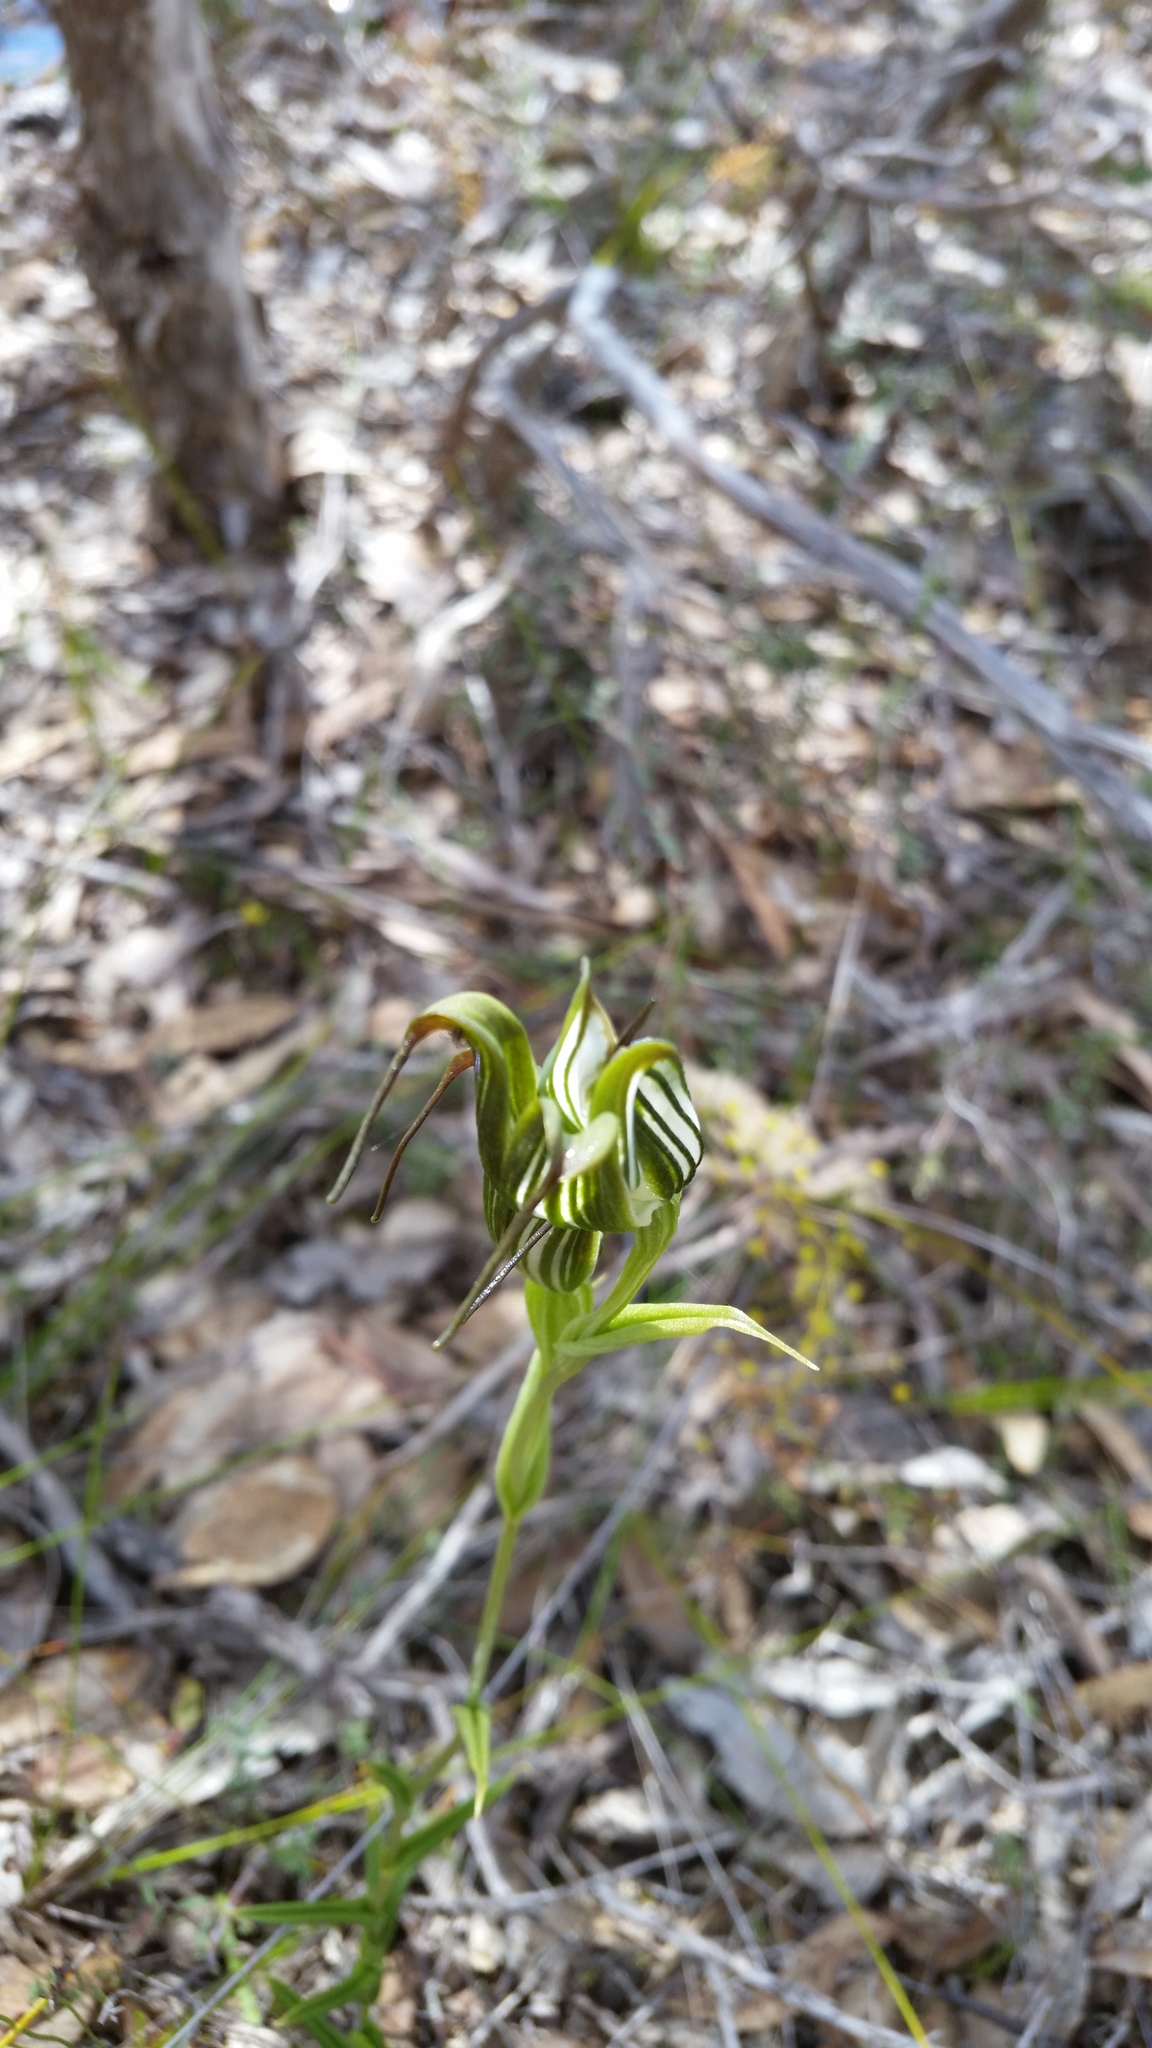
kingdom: Plantae
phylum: Tracheophyta
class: Liliopsida
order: Asparagales
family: Orchidaceae
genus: Pterostylis
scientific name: Pterostylis recurva
